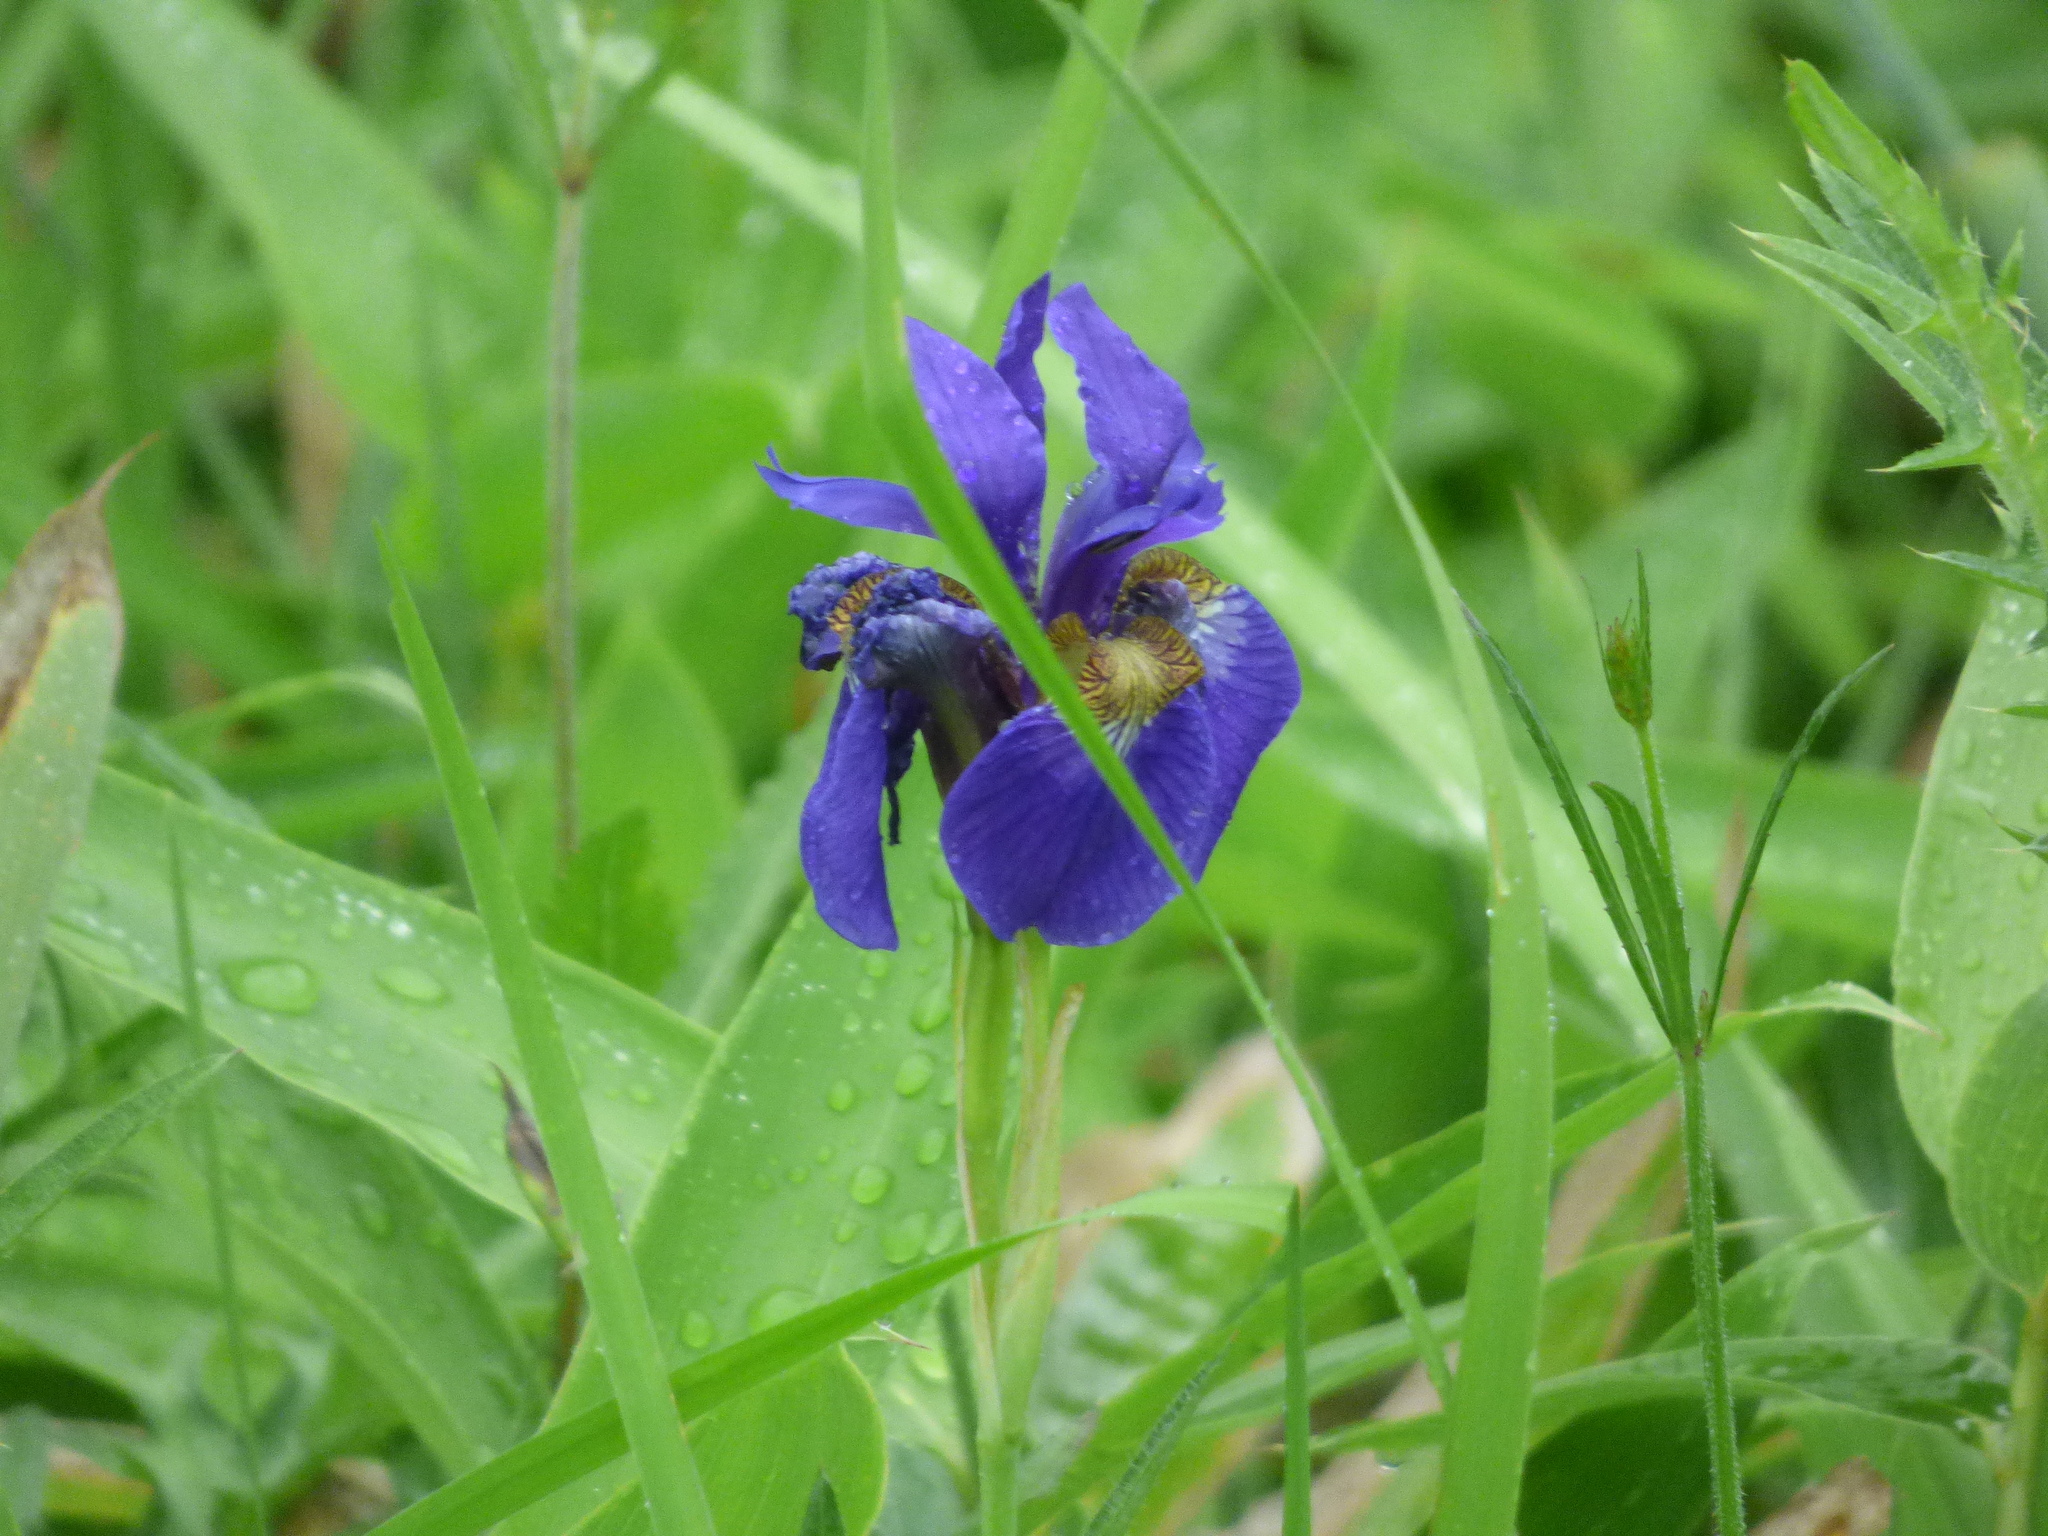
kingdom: Plantae
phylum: Tracheophyta
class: Liliopsida
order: Asparagales
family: Iridaceae
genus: Iris
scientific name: Iris sanguinea
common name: Blood iris
